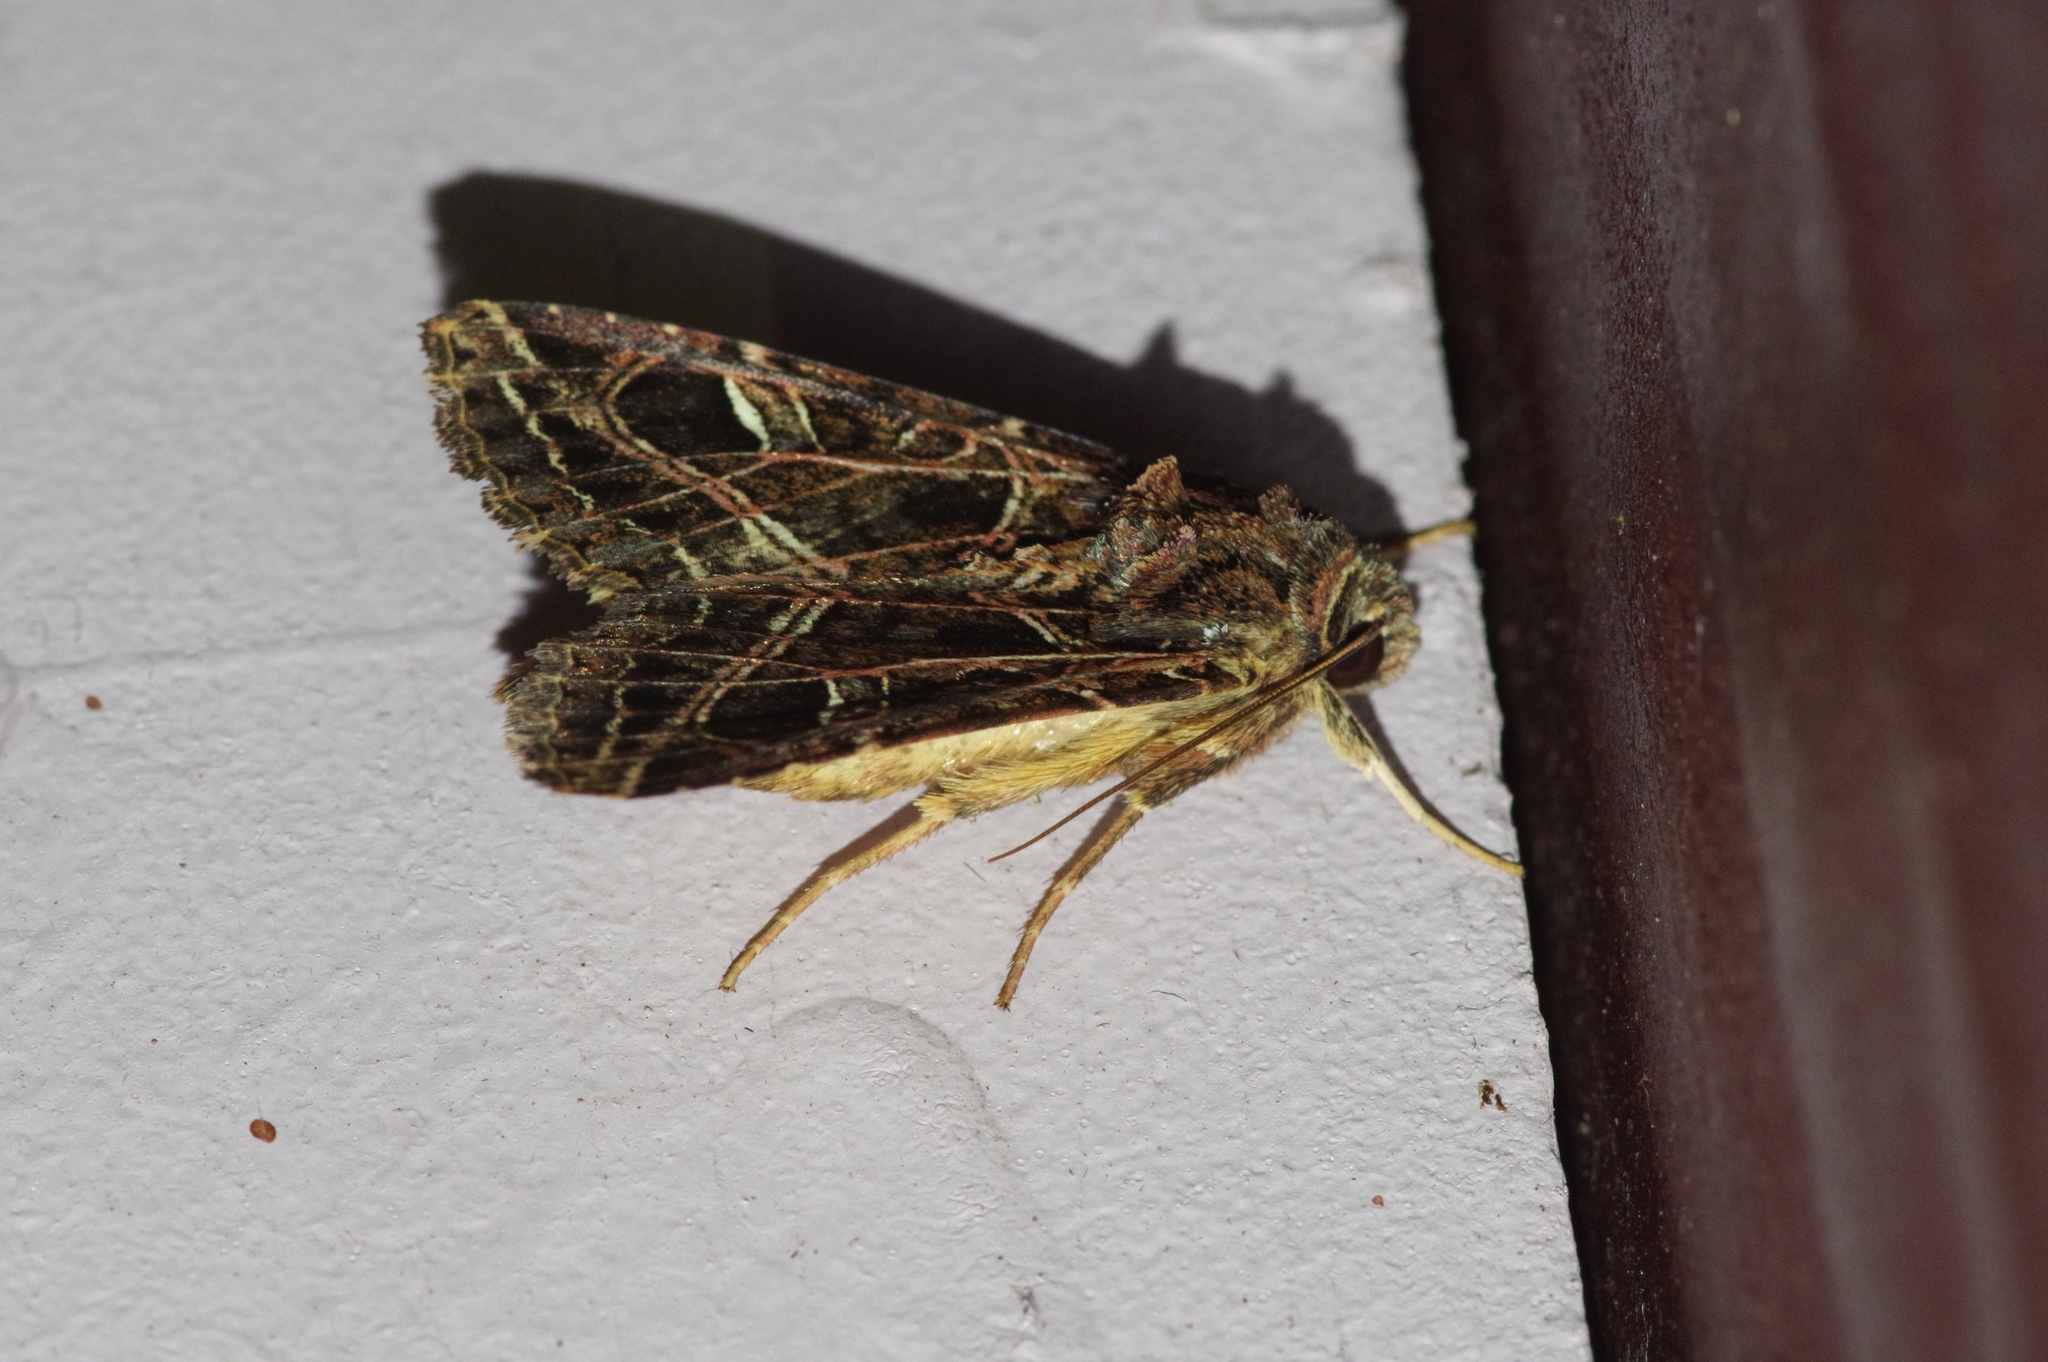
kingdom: Animalia
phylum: Arthropoda
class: Insecta
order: Lepidoptera
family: Noctuidae
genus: Dictyestra
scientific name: Dictyestra dissectus
